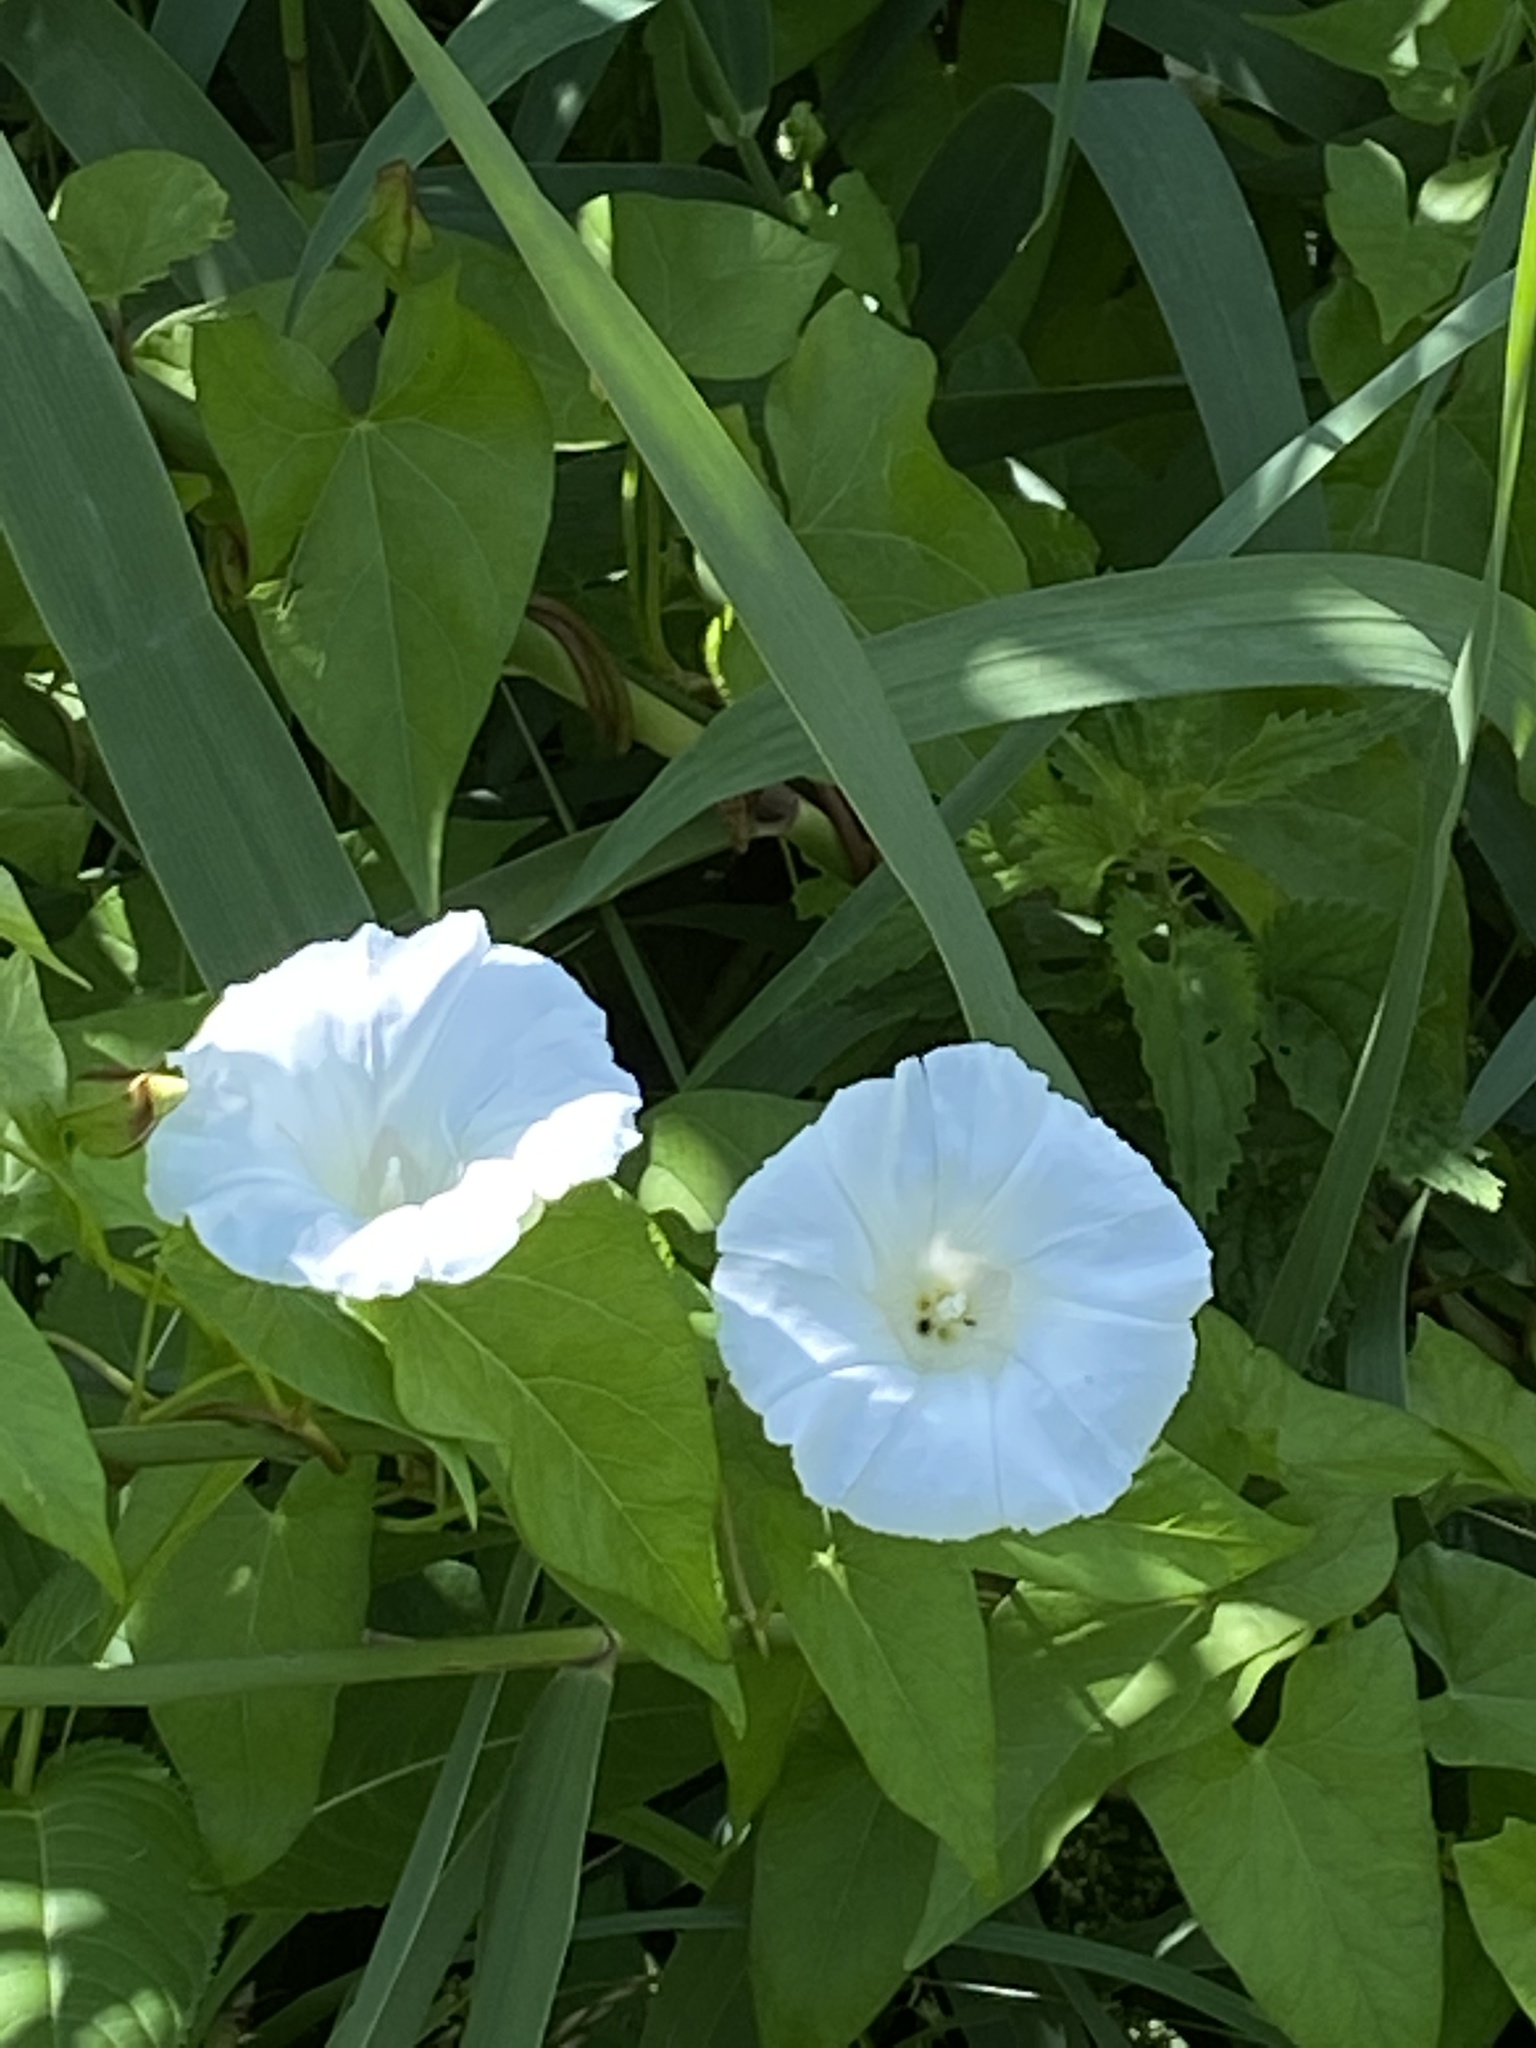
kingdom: Plantae
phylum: Tracheophyta
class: Magnoliopsida
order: Solanales
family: Convolvulaceae
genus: Calystegia
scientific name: Calystegia sepium
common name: Hedge bindweed
